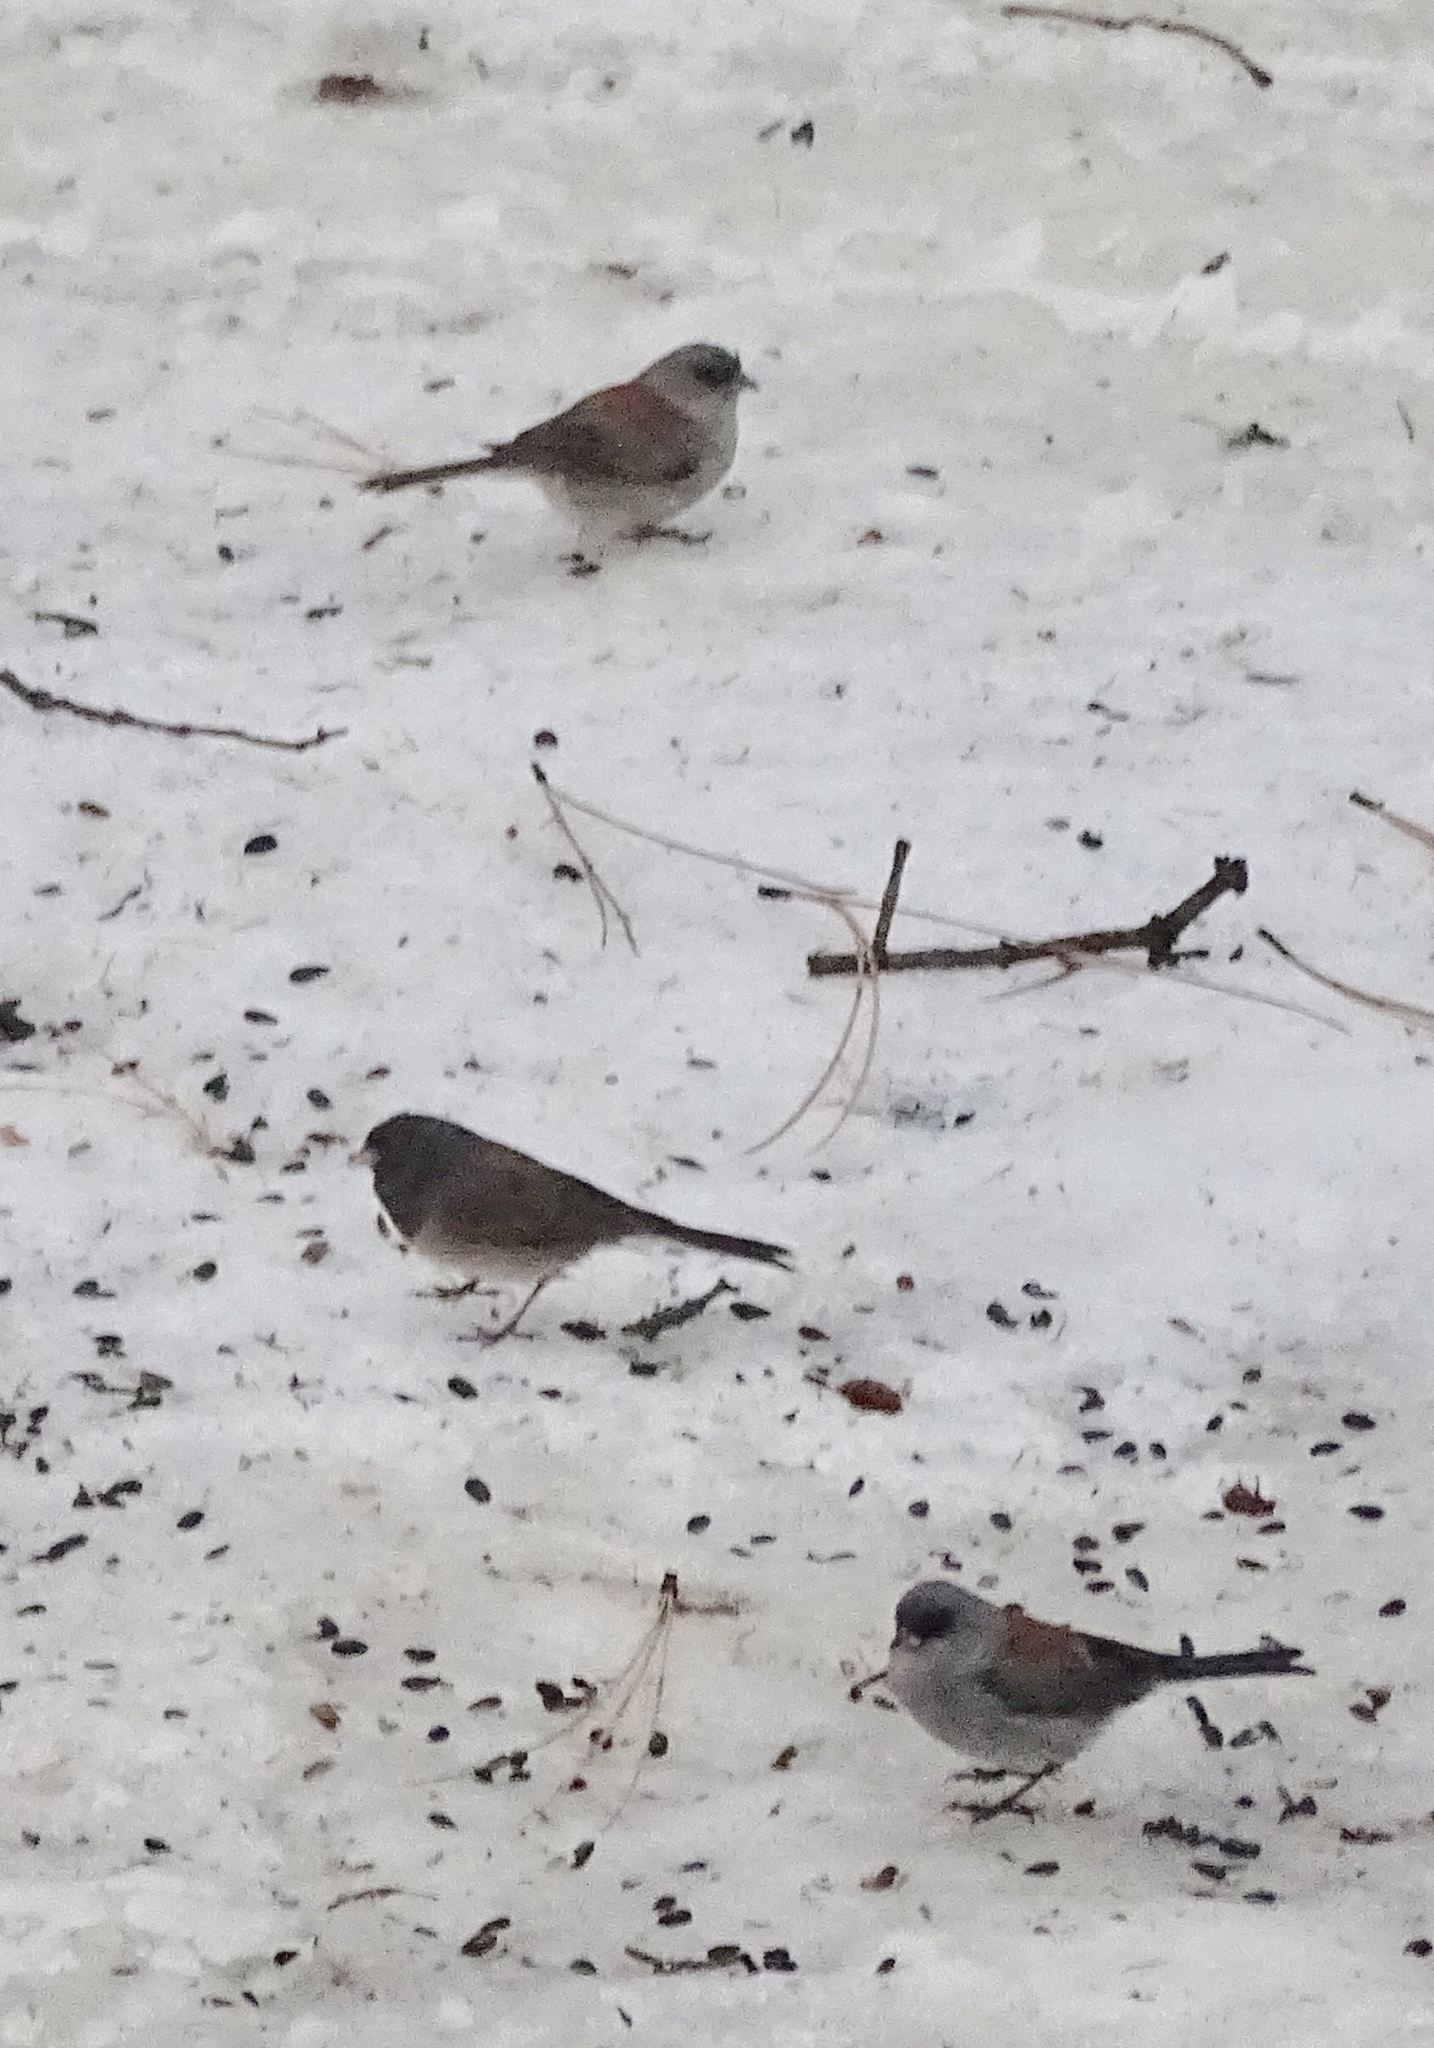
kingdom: Animalia
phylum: Chordata
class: Aves
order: Passeriformes
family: Passerellidae
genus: Junco
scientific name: Junco hyemalis
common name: Dark-eyed junco
